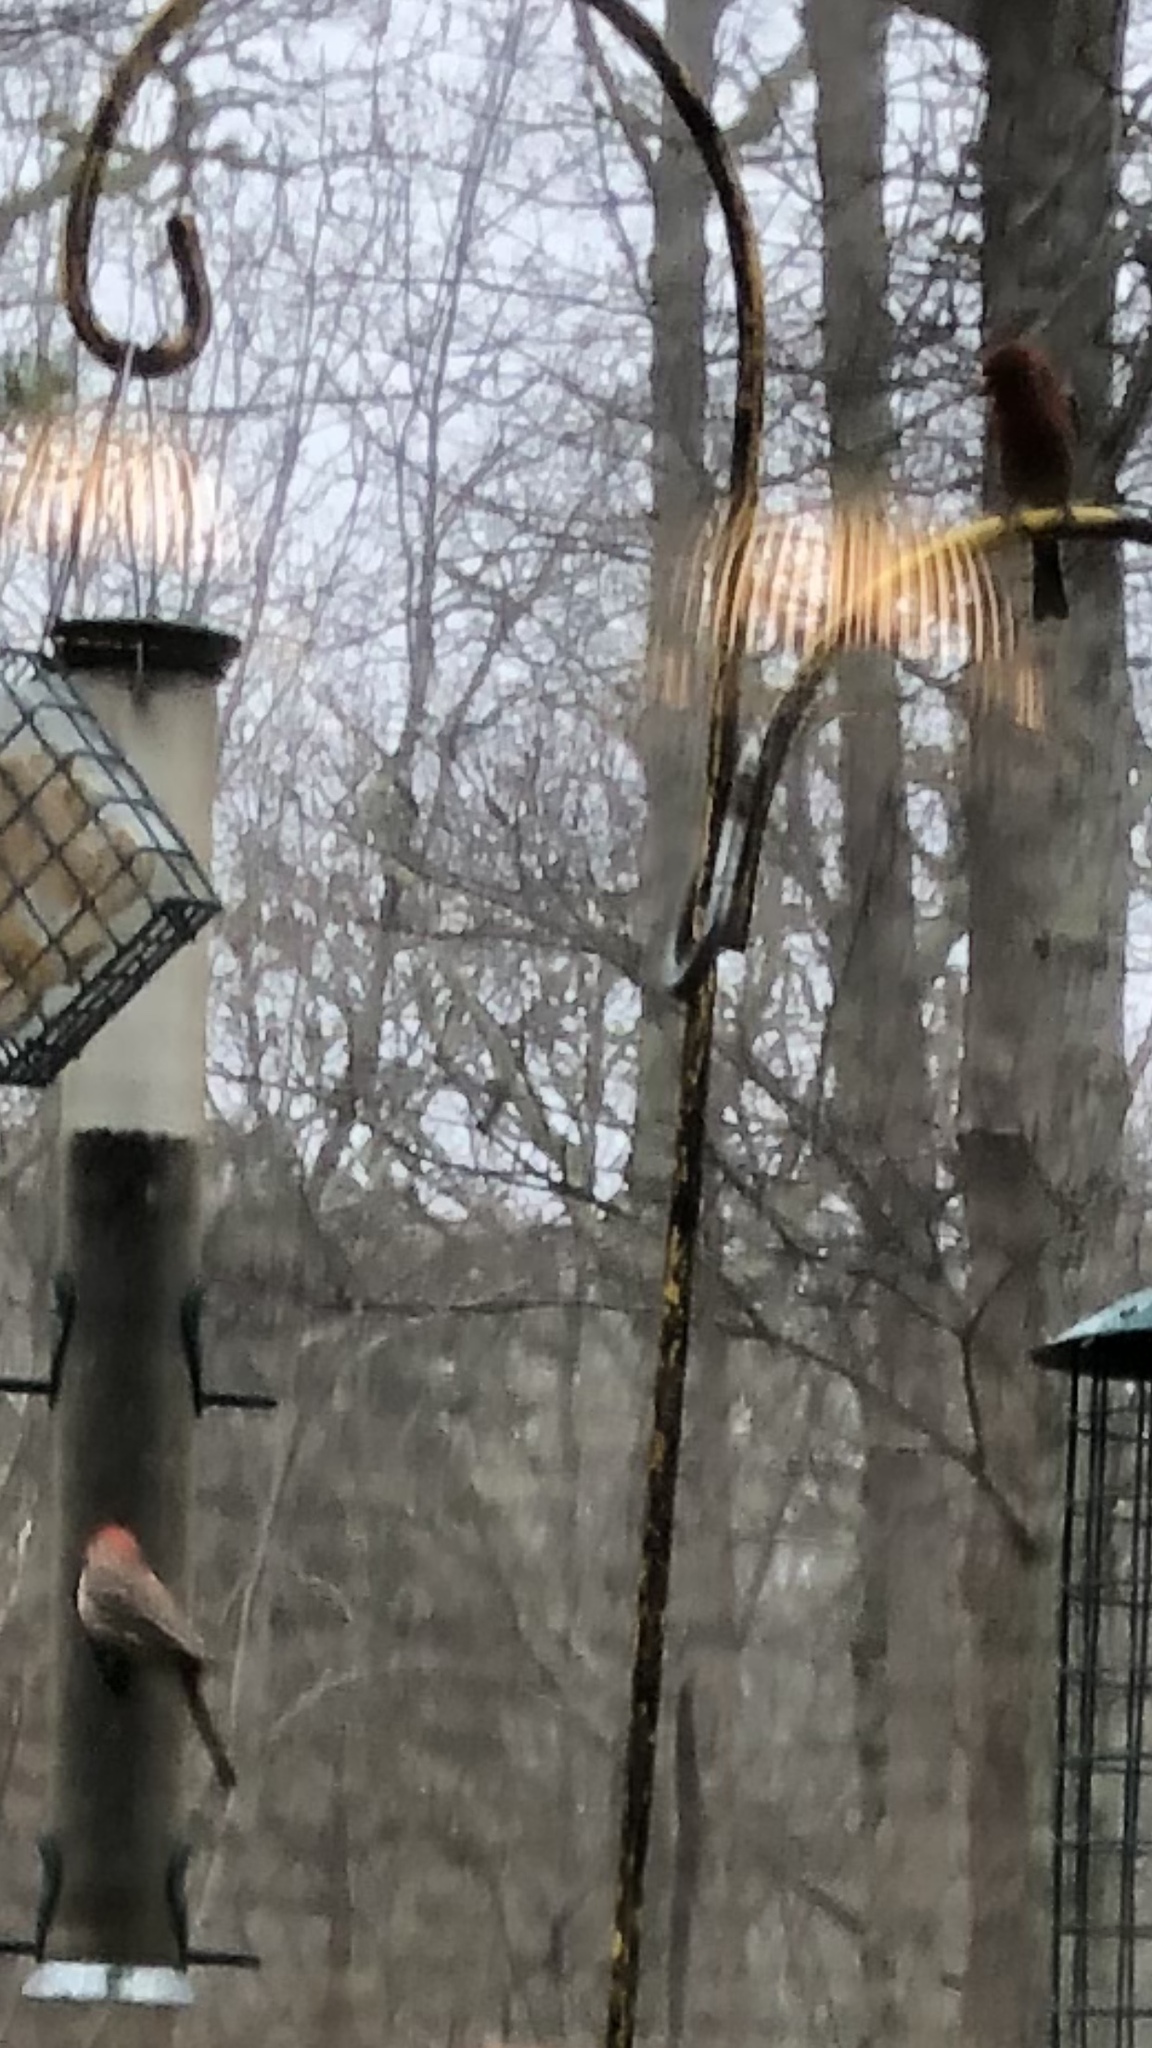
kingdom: Animalia
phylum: Chordata
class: Aves
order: Passeriformes
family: Fringillidae
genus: Haemorhous
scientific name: Haemorhous mexicanus
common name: House finch
